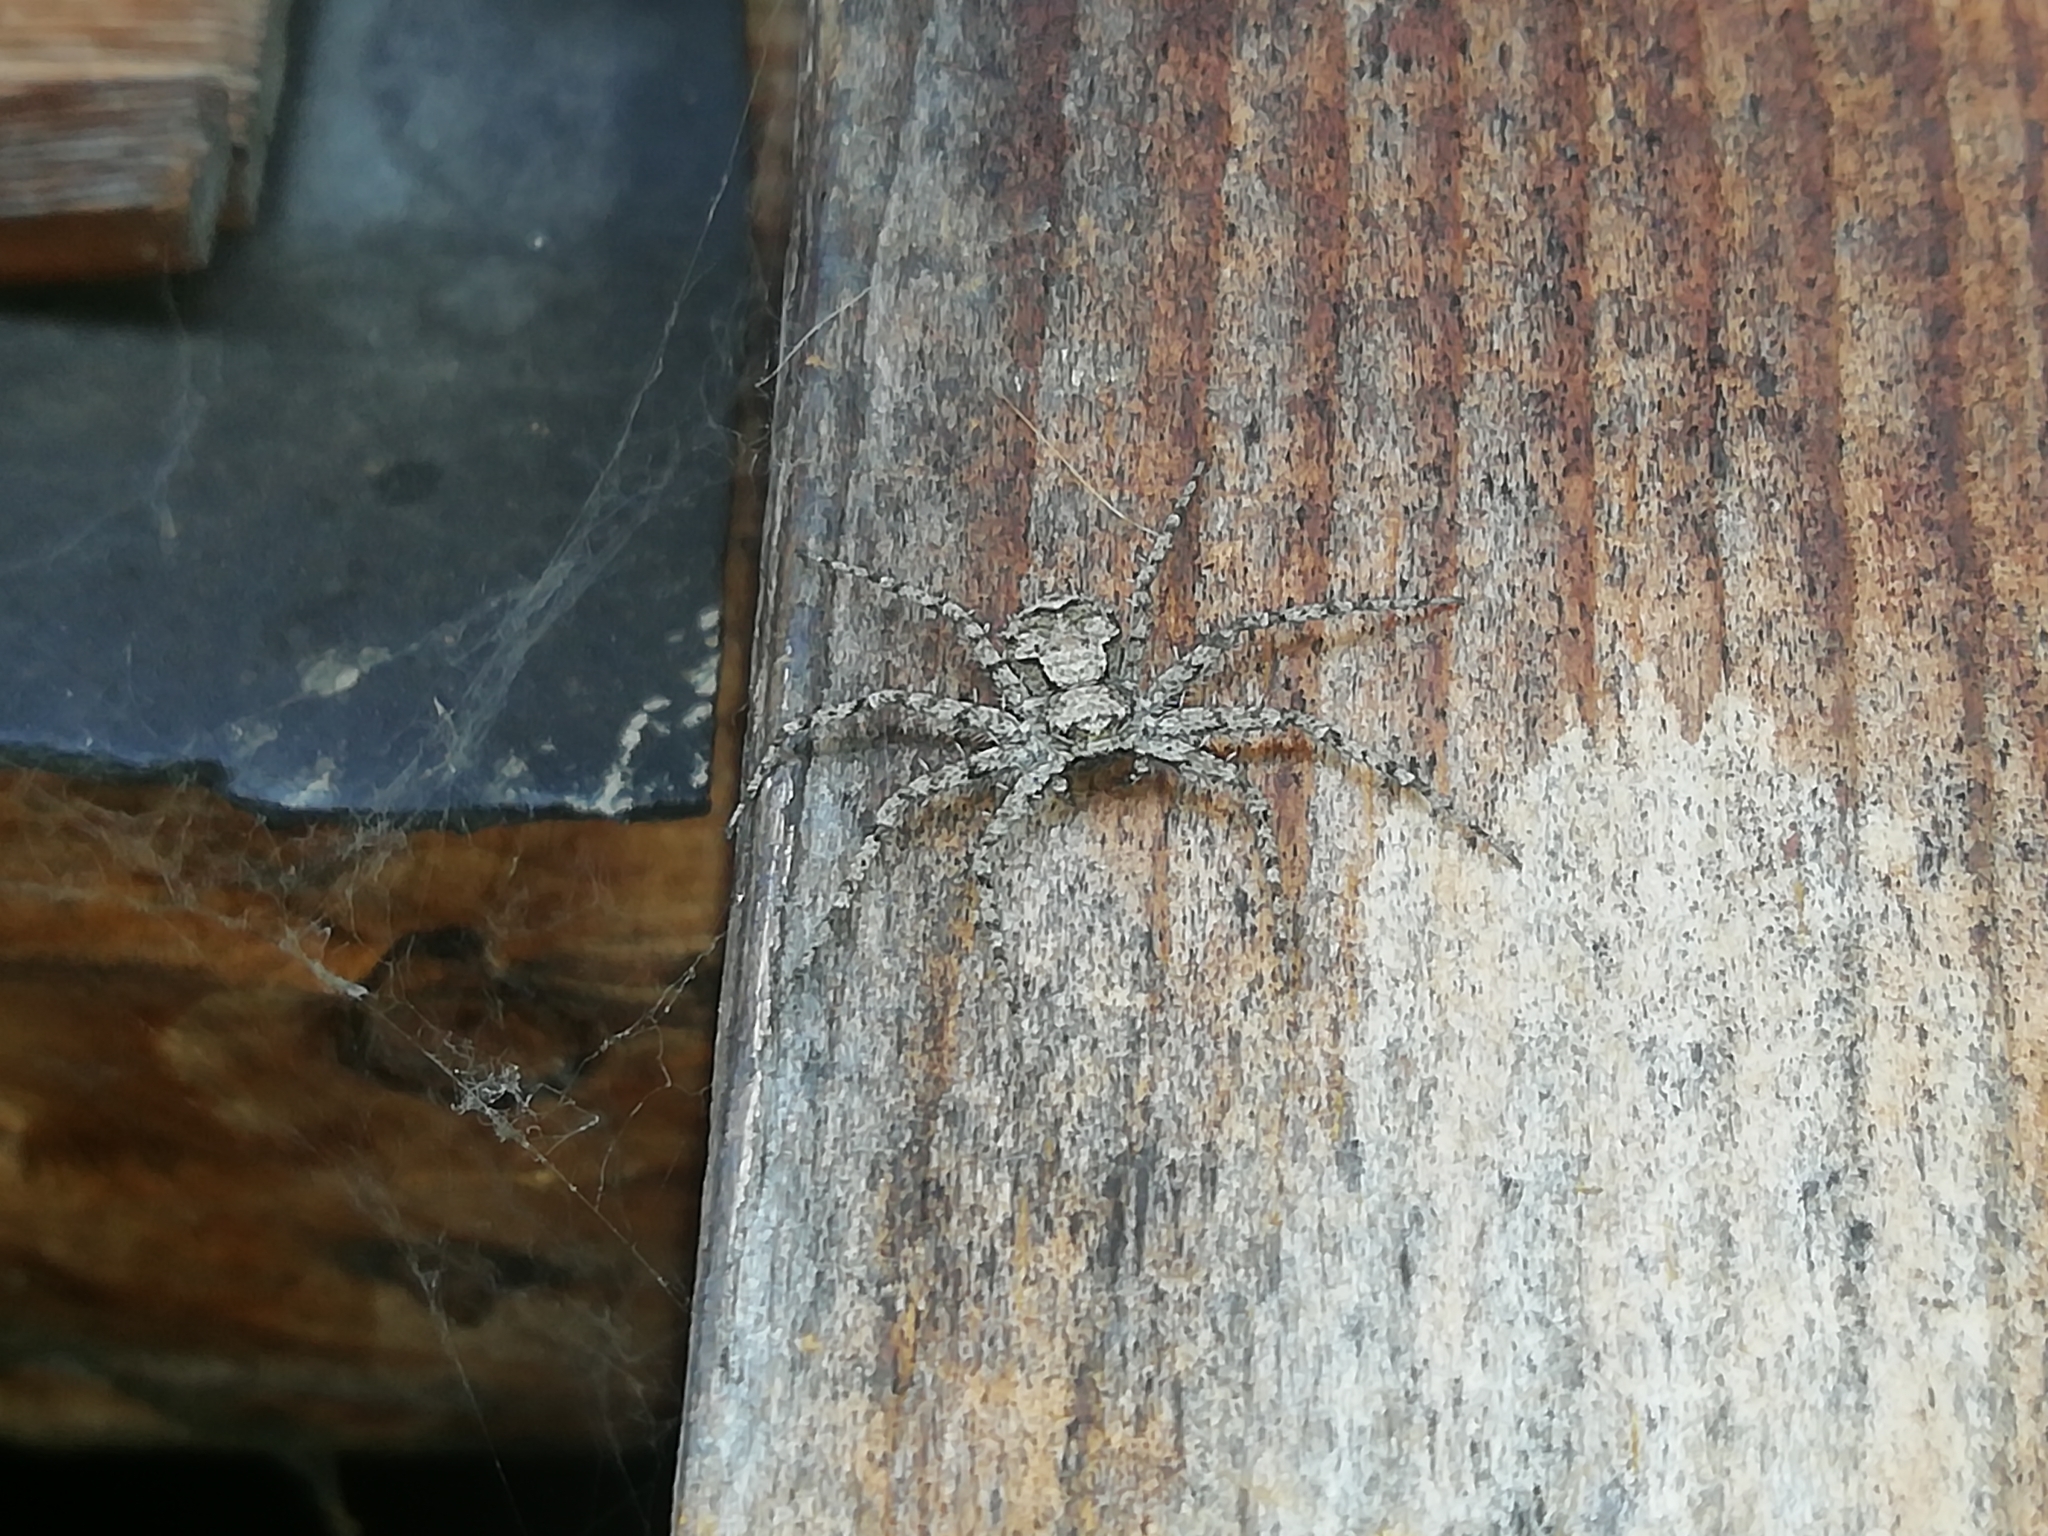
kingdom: Animalia
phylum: Arthropoda
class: Arachnida
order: Araneae
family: Philodromidae
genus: Philodromus
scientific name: Philodromus poecilus
